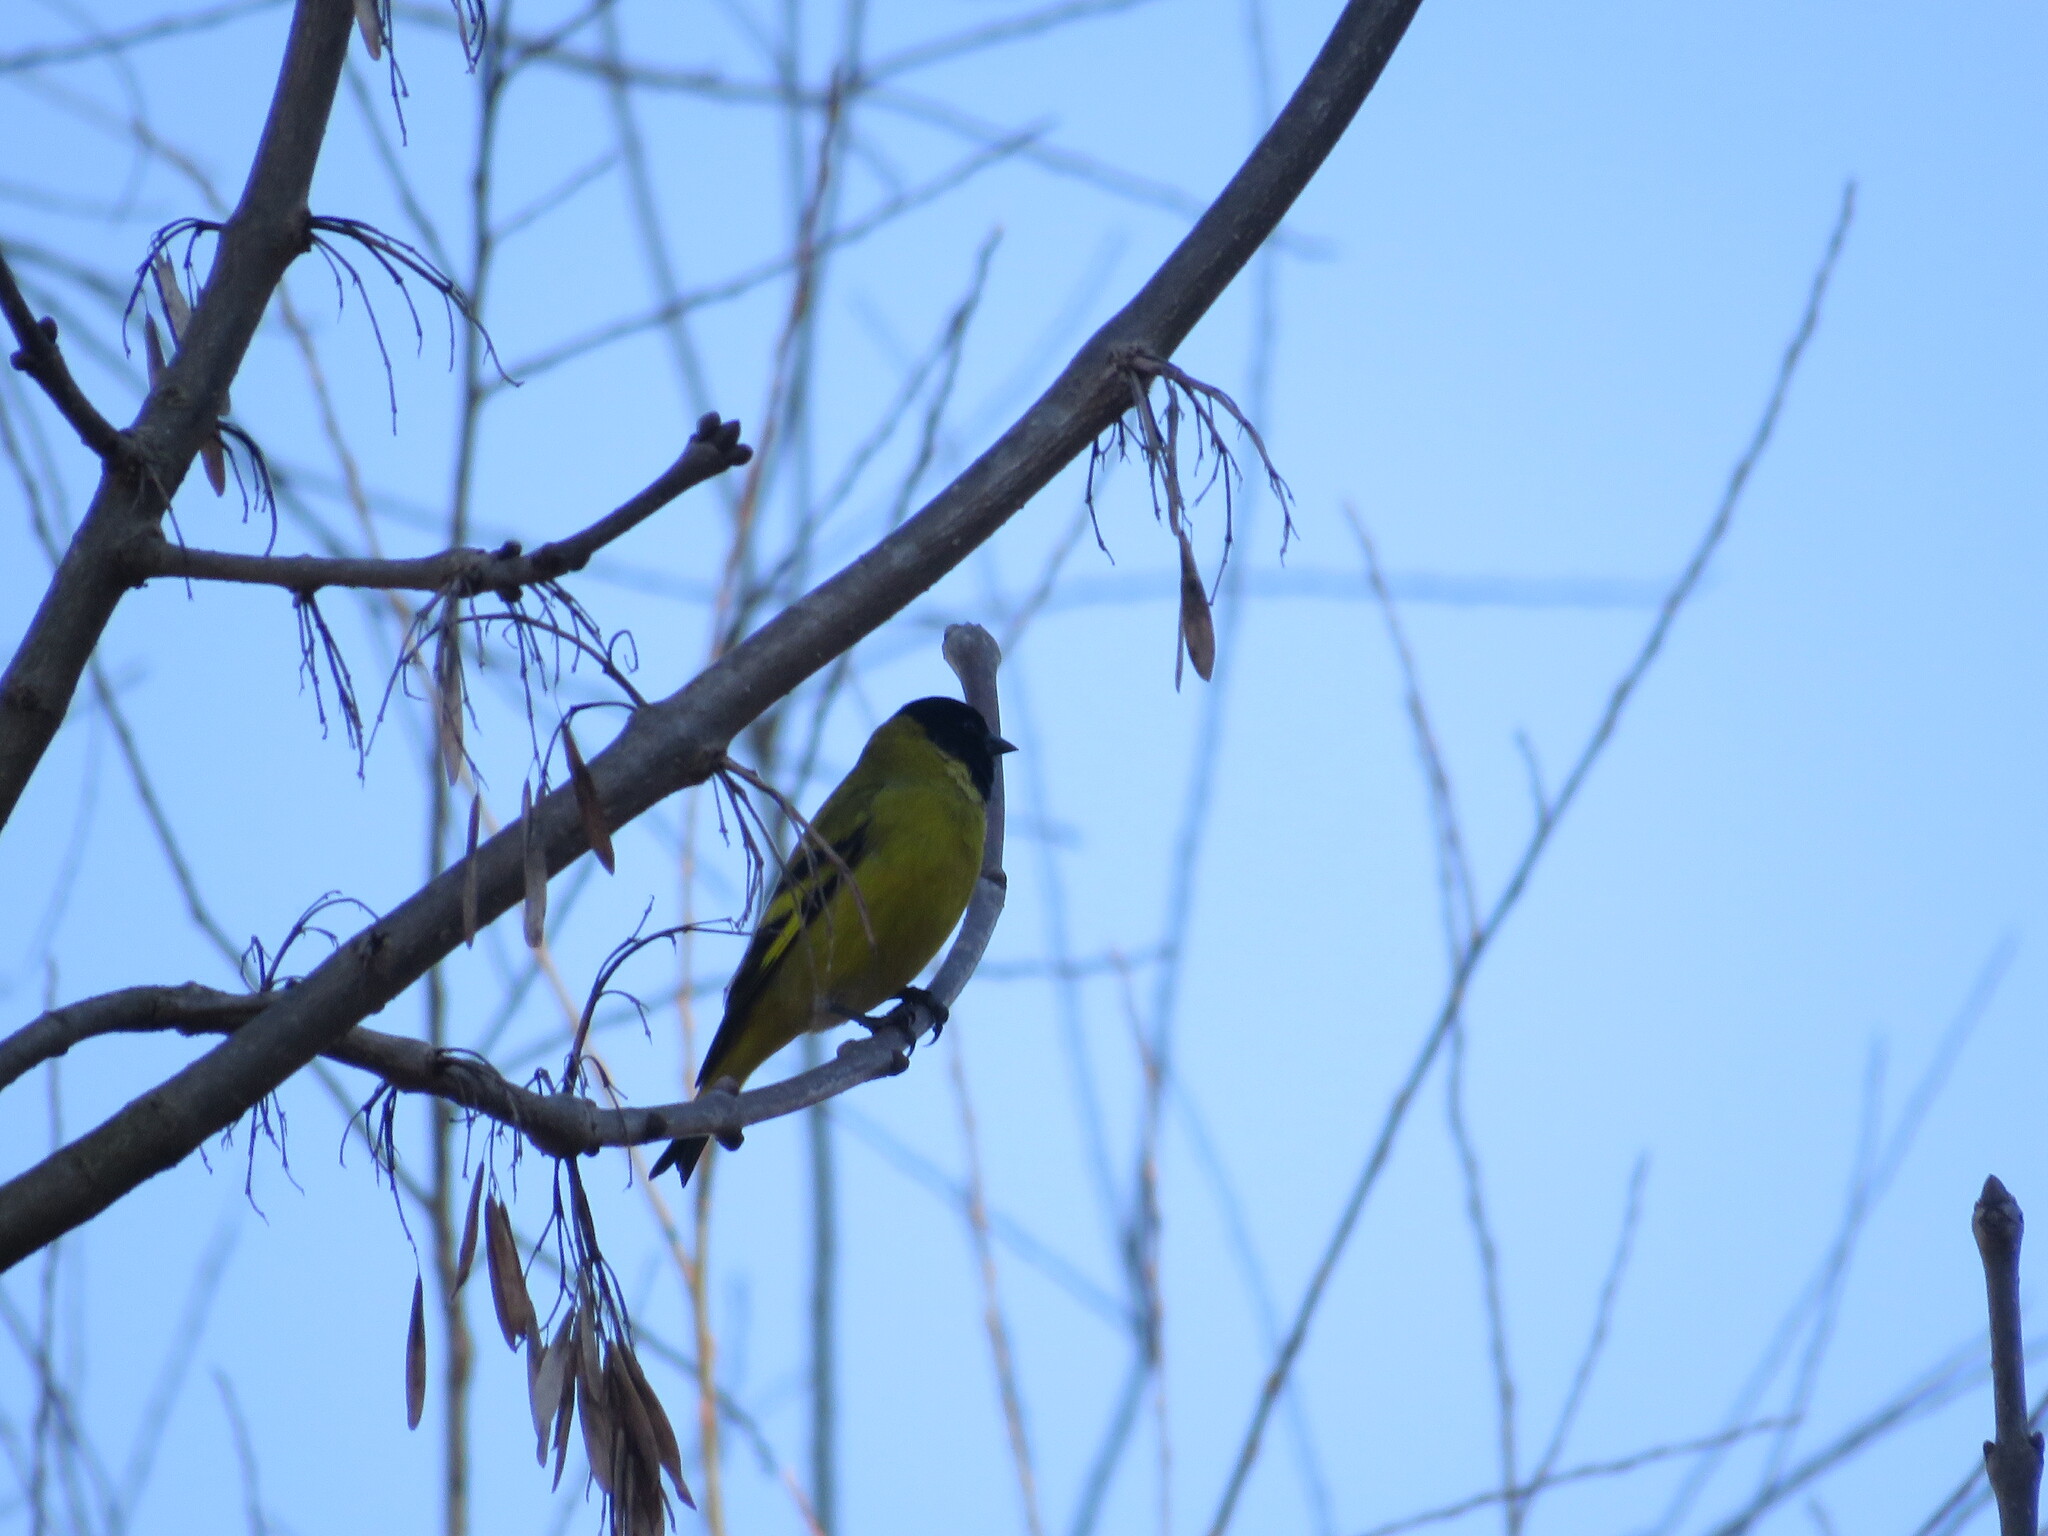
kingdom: Animalia
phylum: Chordata
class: Aves
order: Passeriformes
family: Fringillidae
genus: Spinus
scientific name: Spinus magellanicus
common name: Hooded siskin
